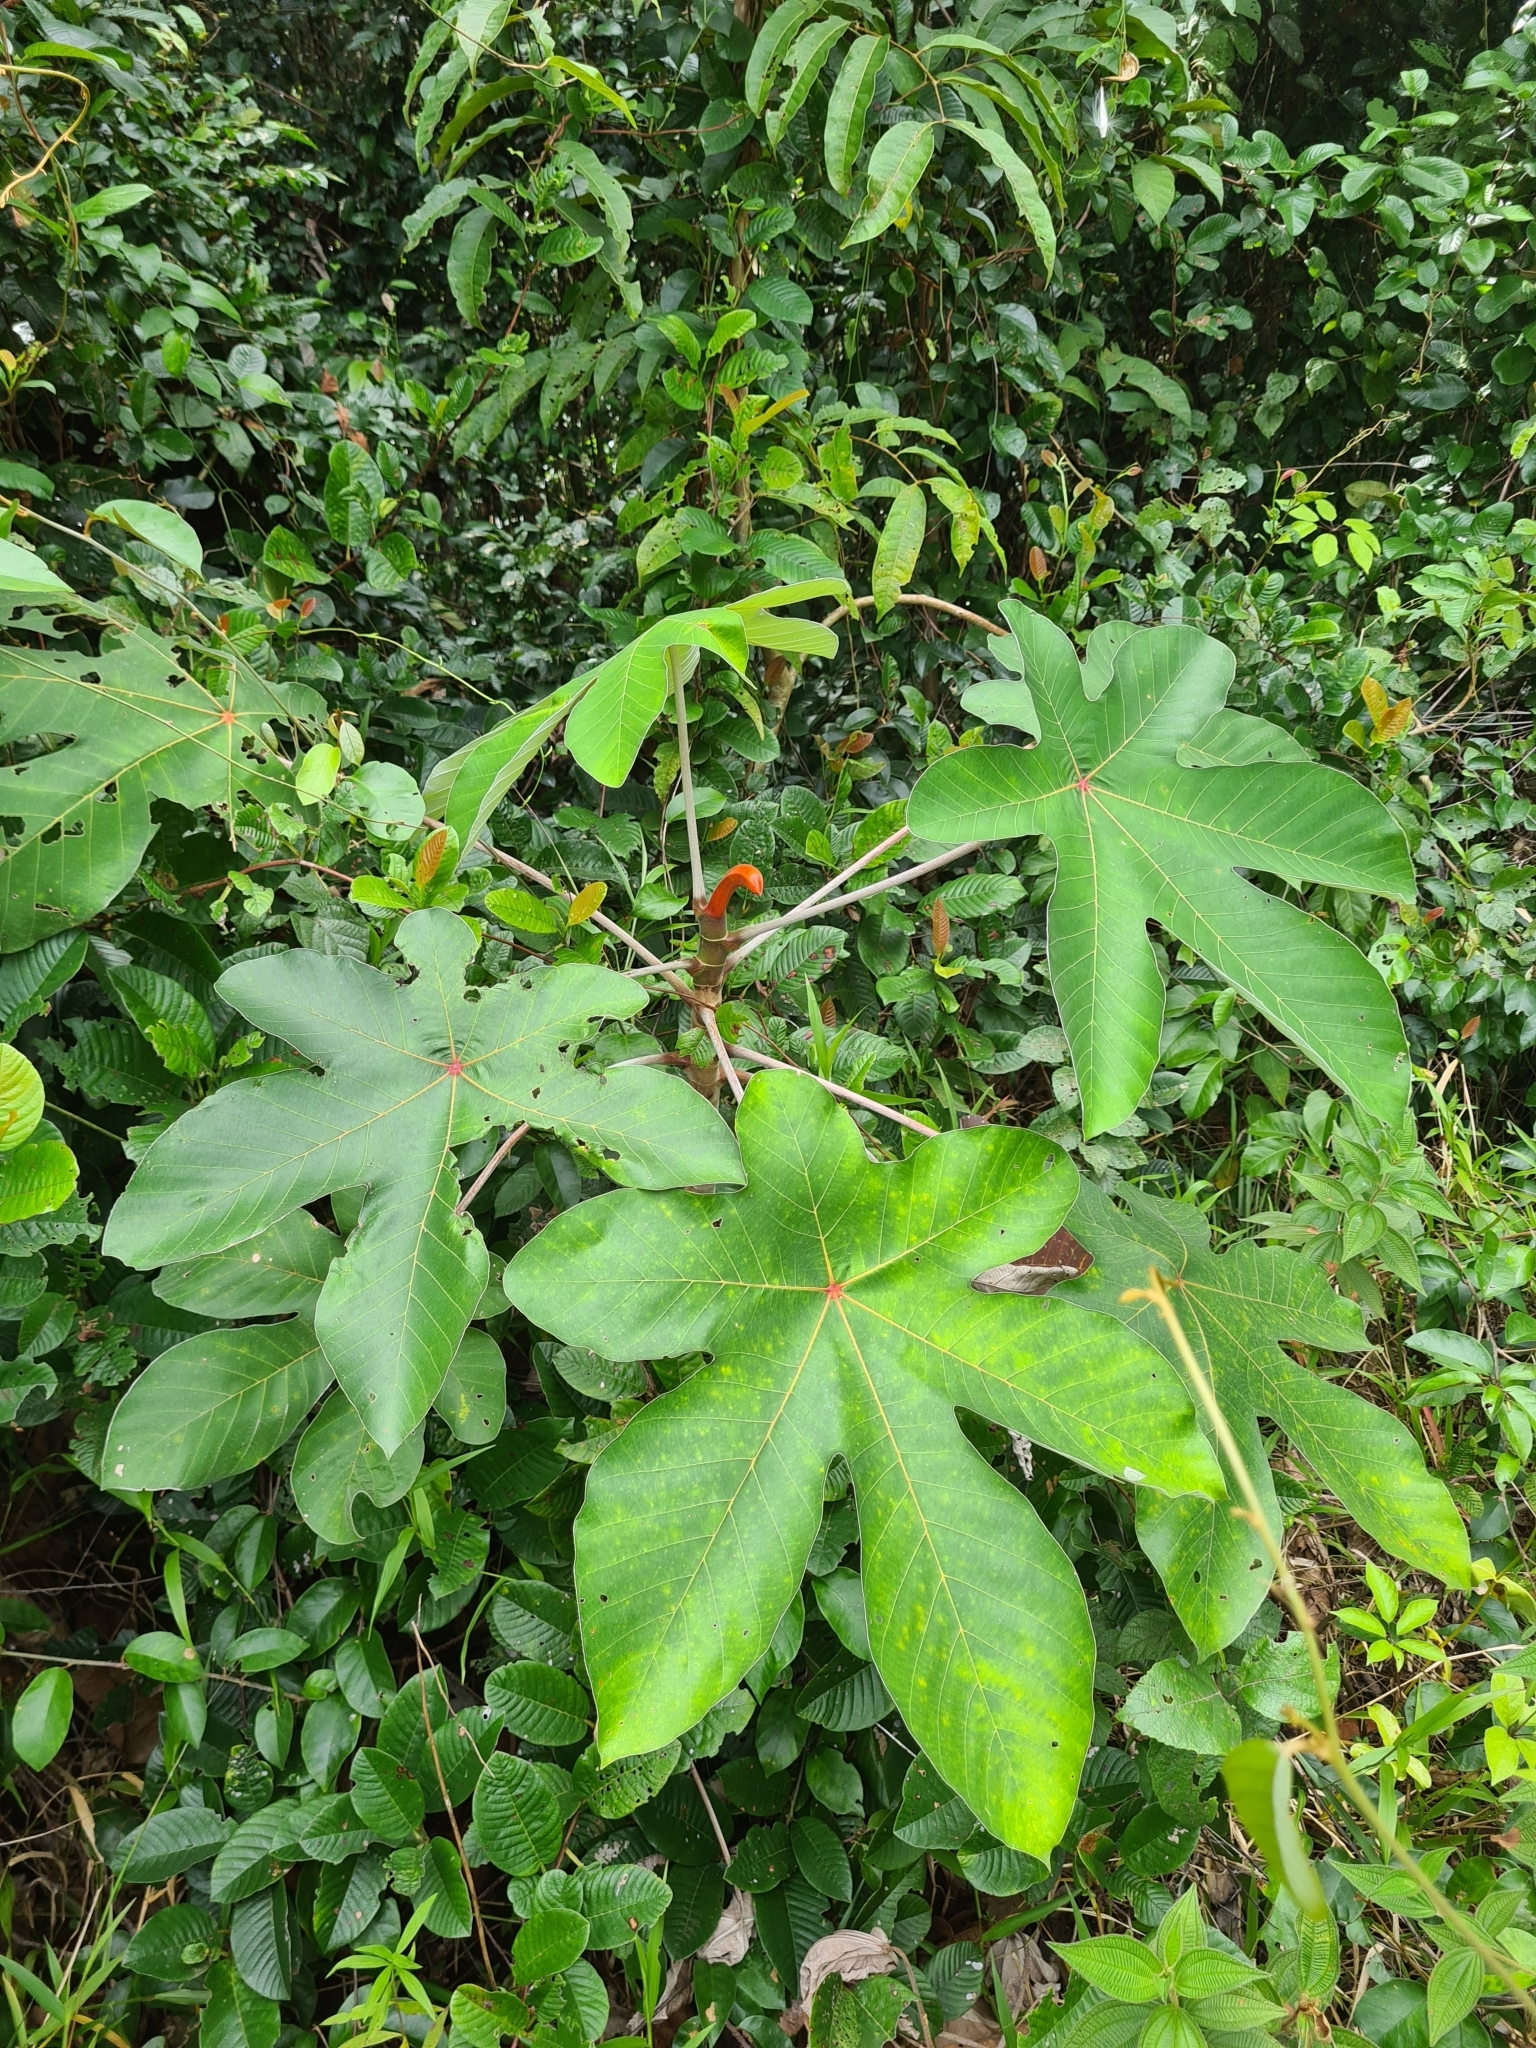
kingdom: Plantae
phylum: Tracheophyta
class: Magnoliopsida
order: Rosales
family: Urticaceae
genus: Cecropia
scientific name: Cecropia obtusa
